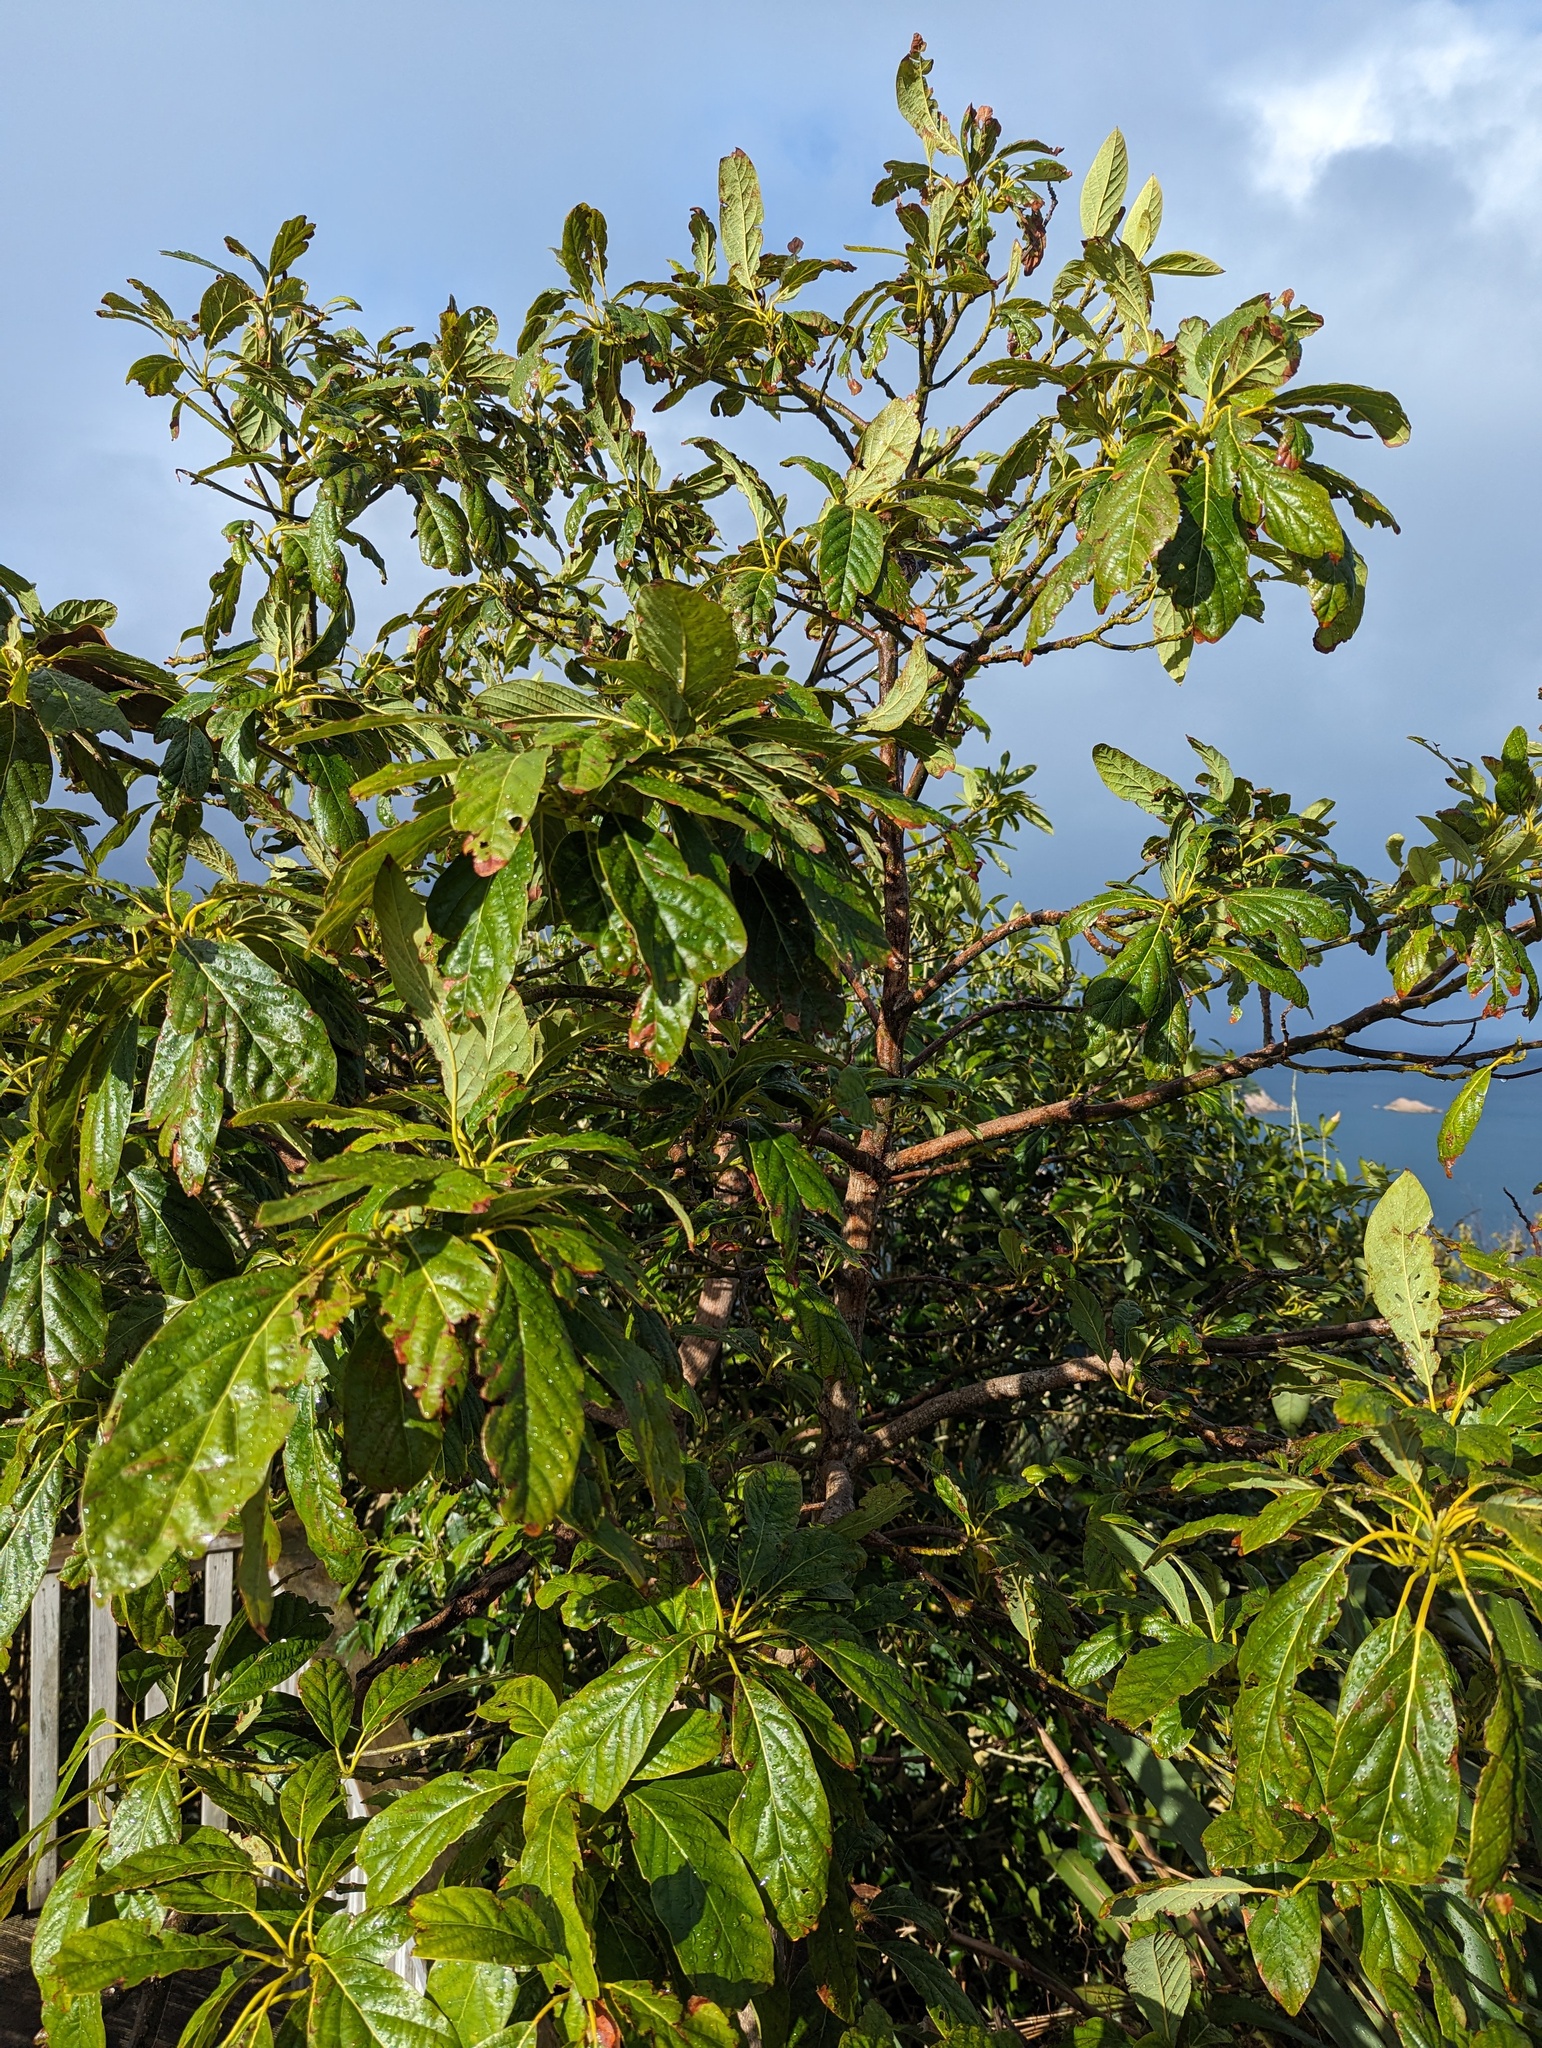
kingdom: Plantae
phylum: Tracheophyta
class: Magnoliopsida
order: Rosales
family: Rosaceae
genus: Rhaphiolepis
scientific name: Rhaphiolepis bibas
